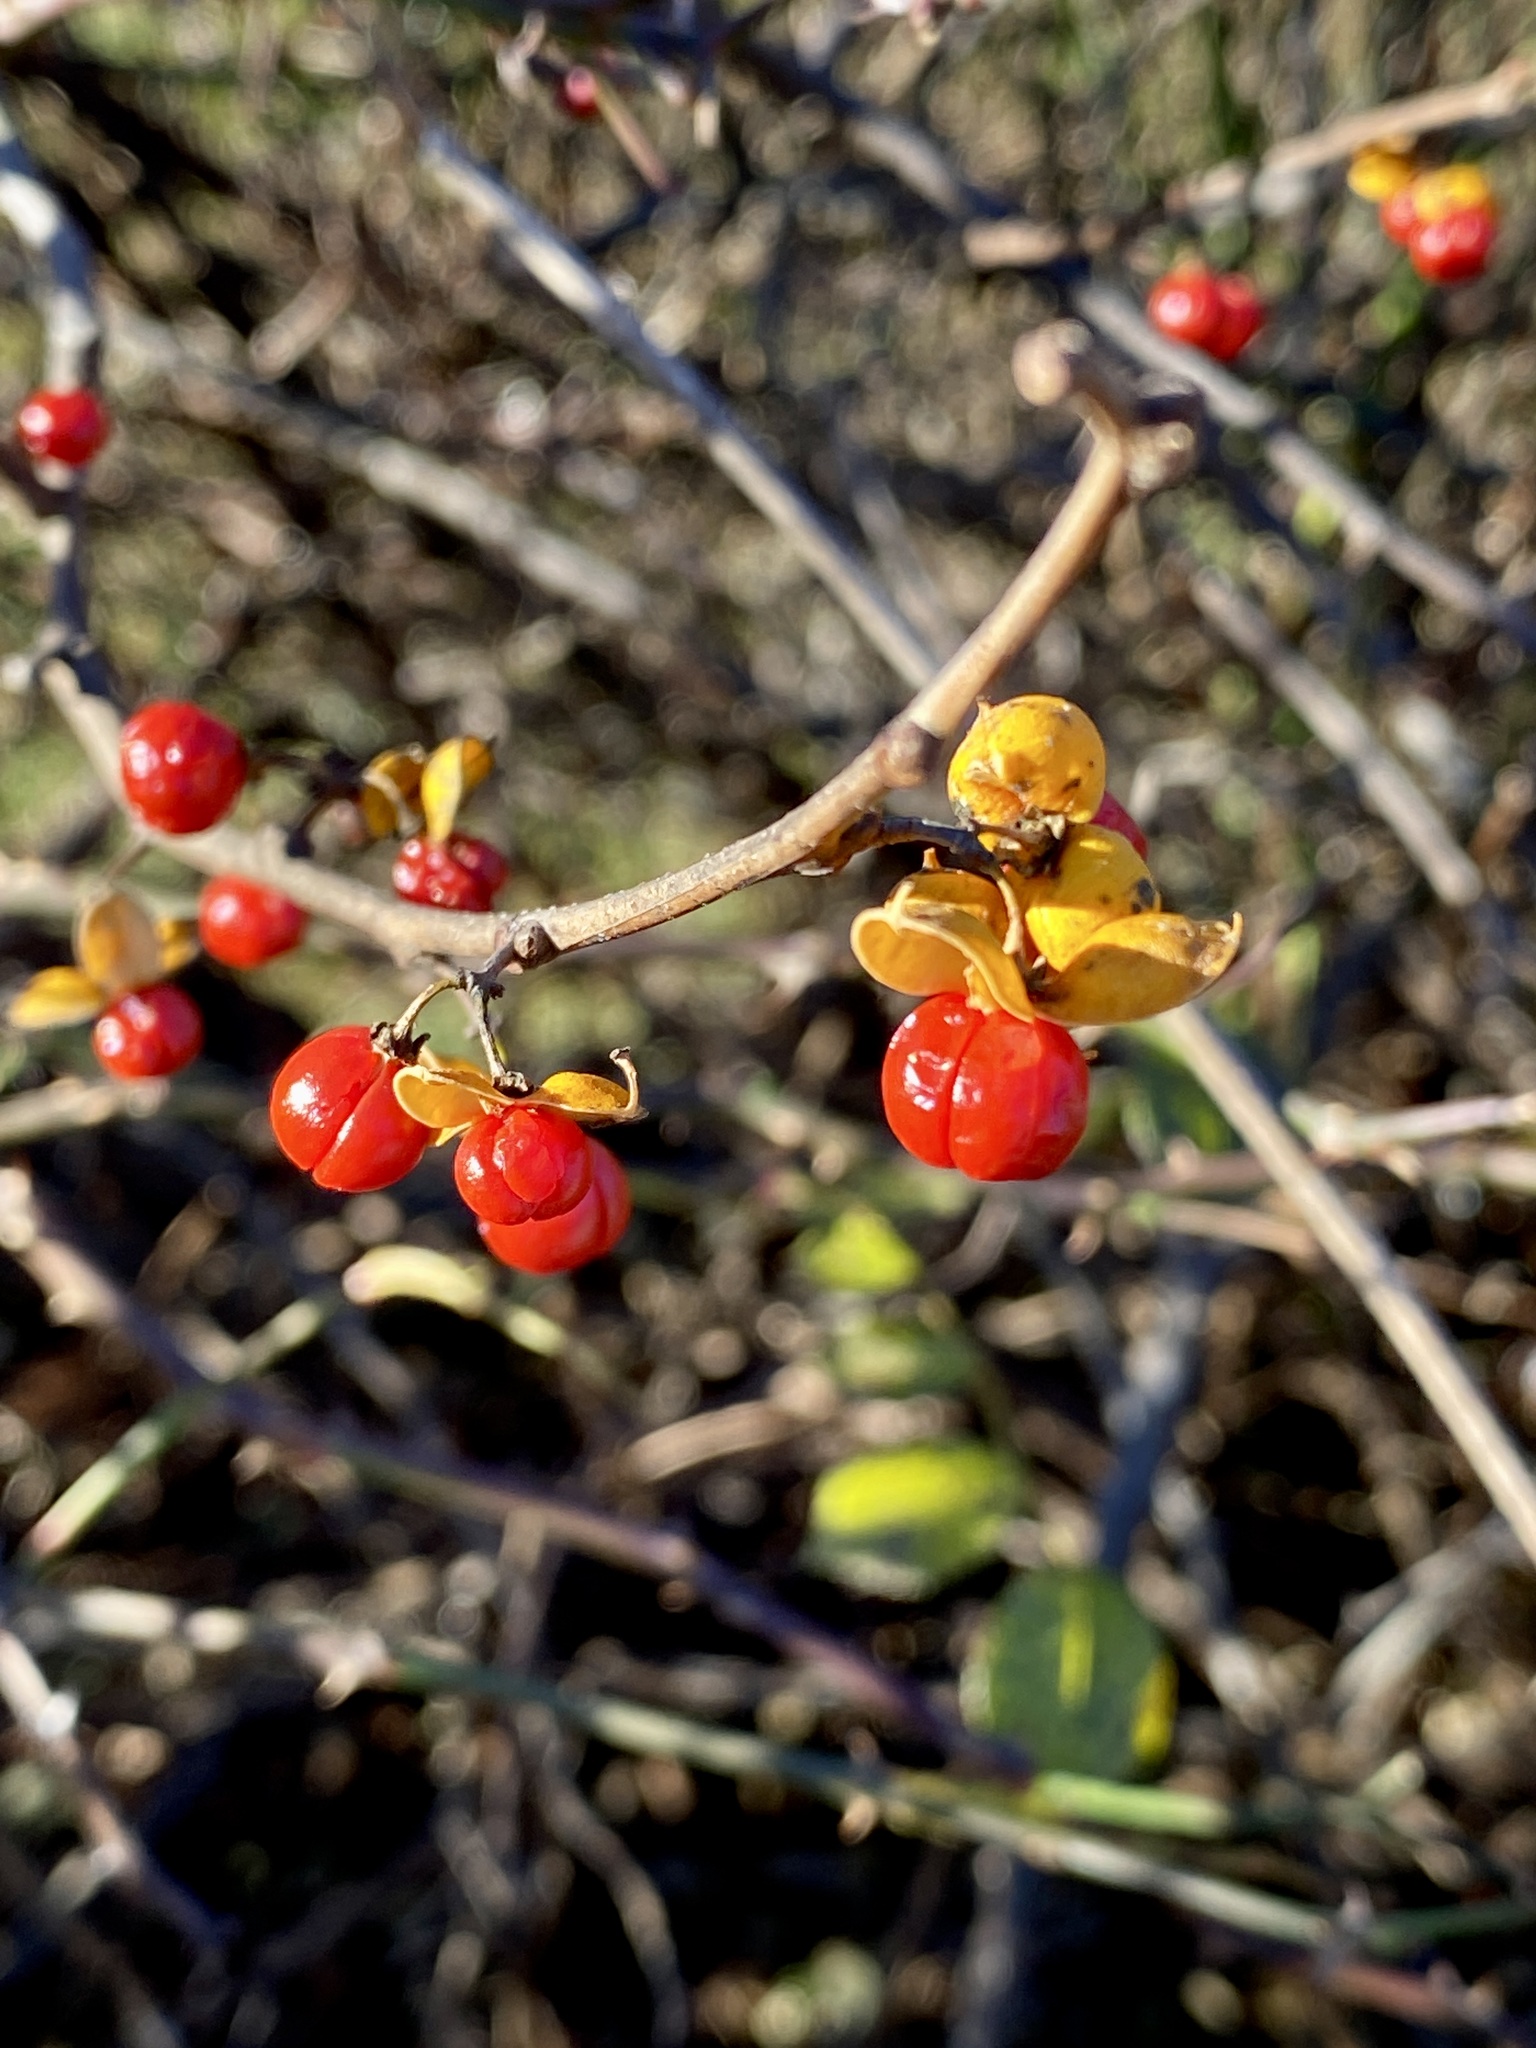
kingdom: Plantae
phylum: Tracheophyta
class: Magnoliopsida
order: Celastrales
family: Celastraceae
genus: Celastrus
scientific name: Celastrus orbiculatus
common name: Oriental bittersweet
